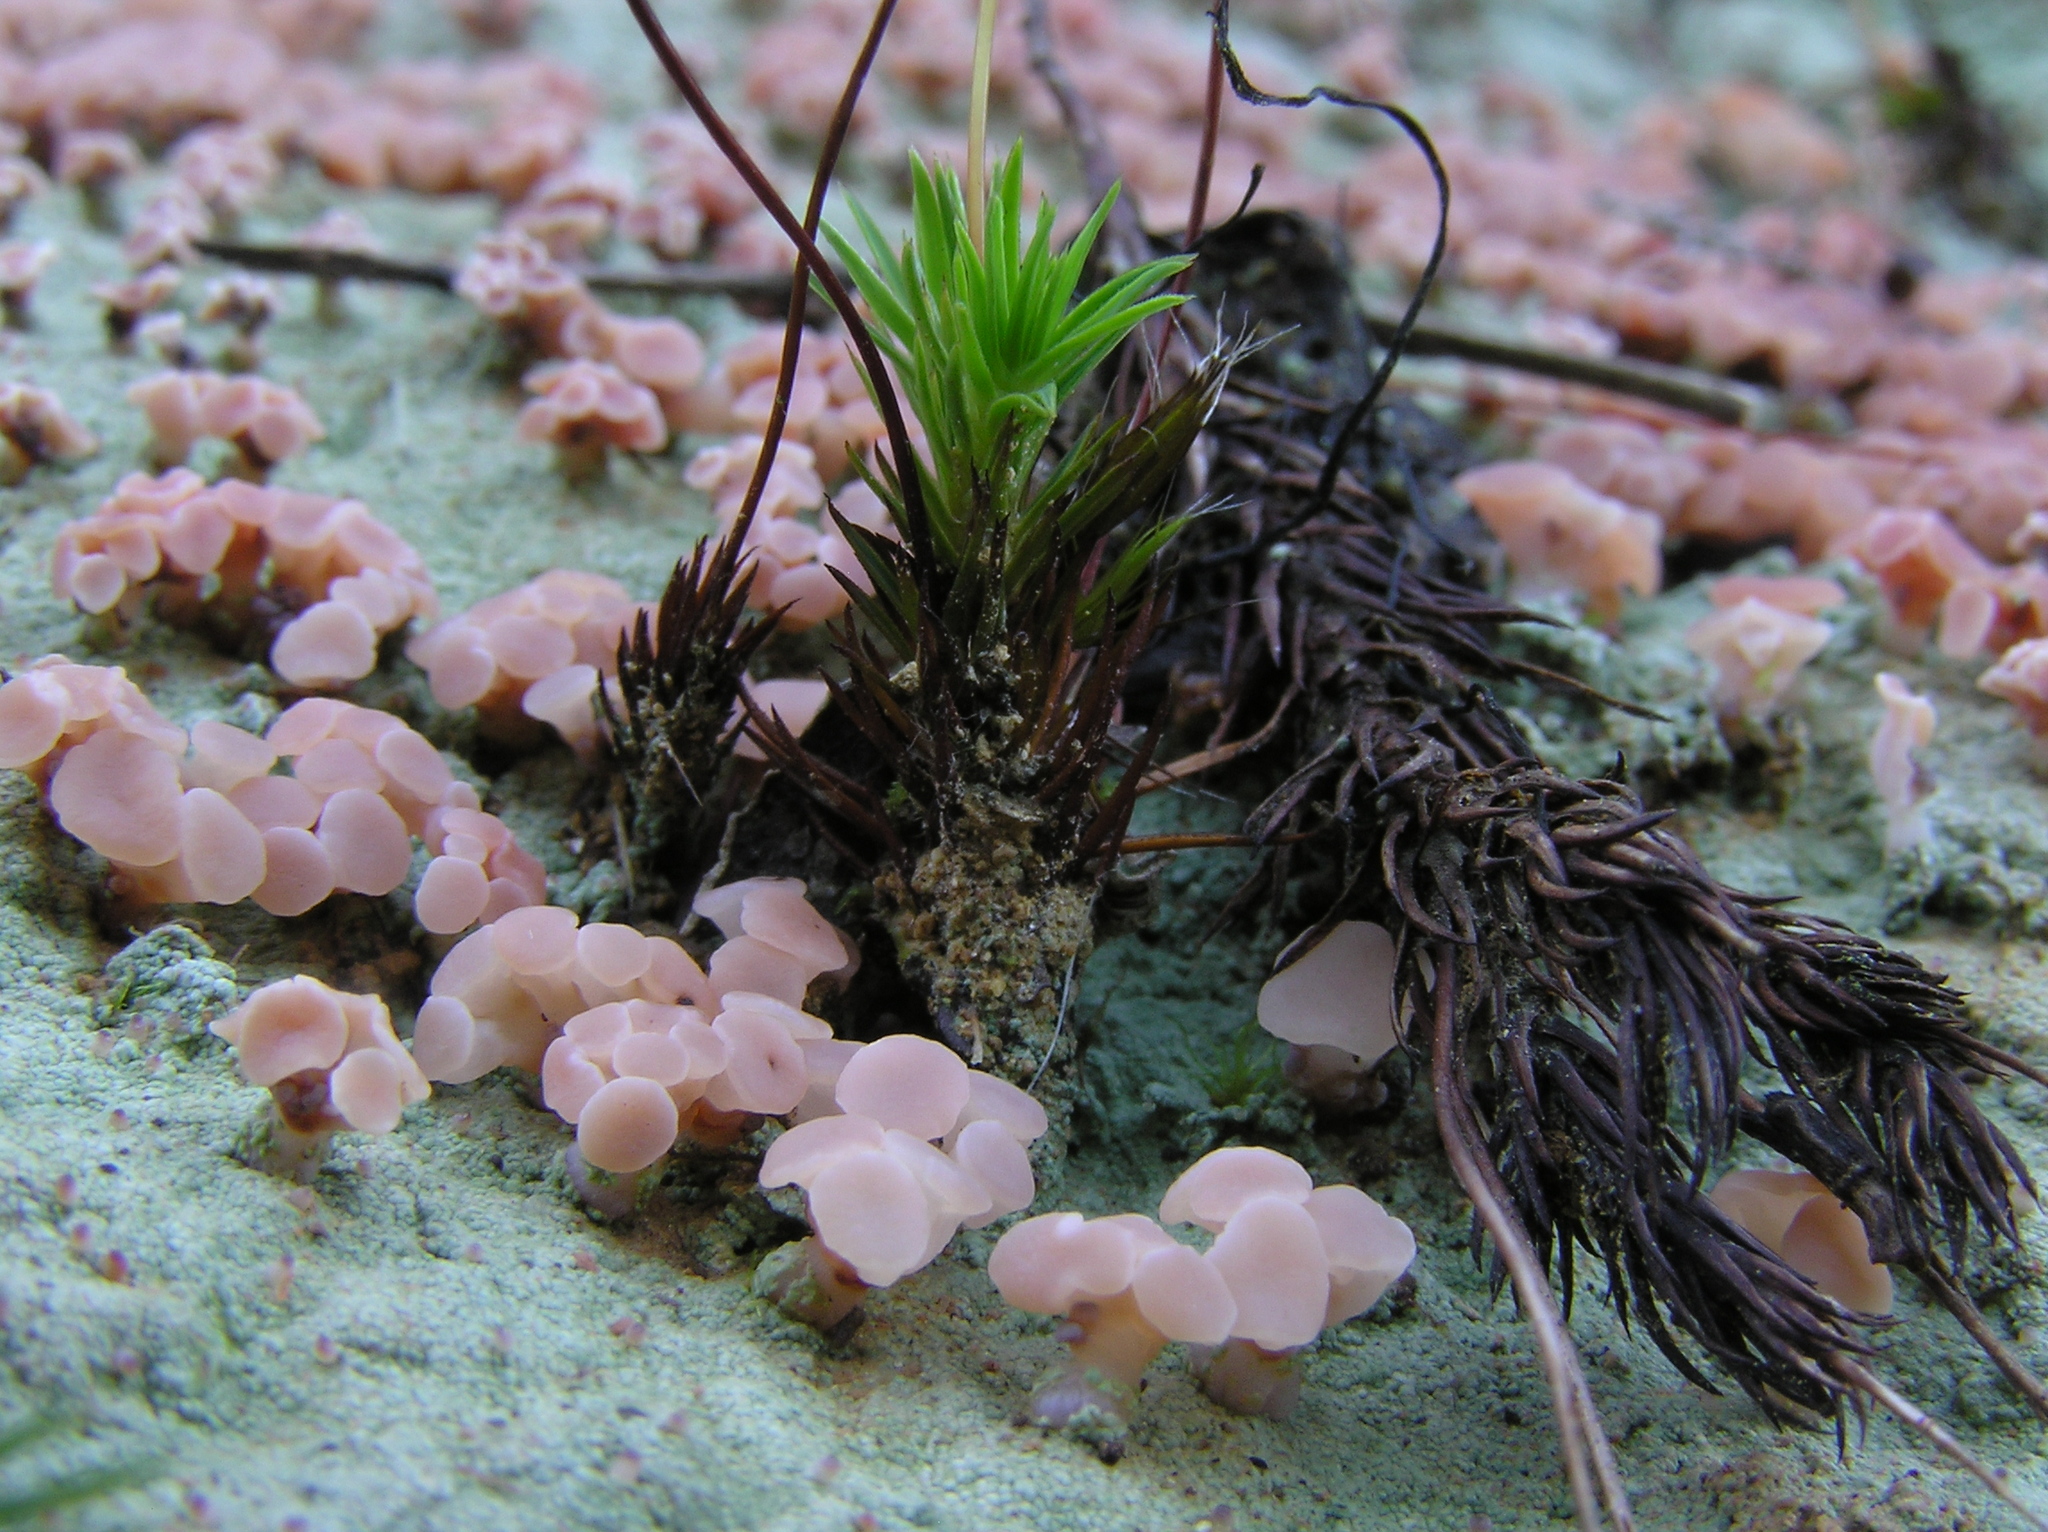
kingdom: Fungi
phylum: Ascomycota
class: Lecanoromycetes
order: Baeomycetales
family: Baeomycetaceae
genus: Baeomyces
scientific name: Baeomyces heteromorphus
